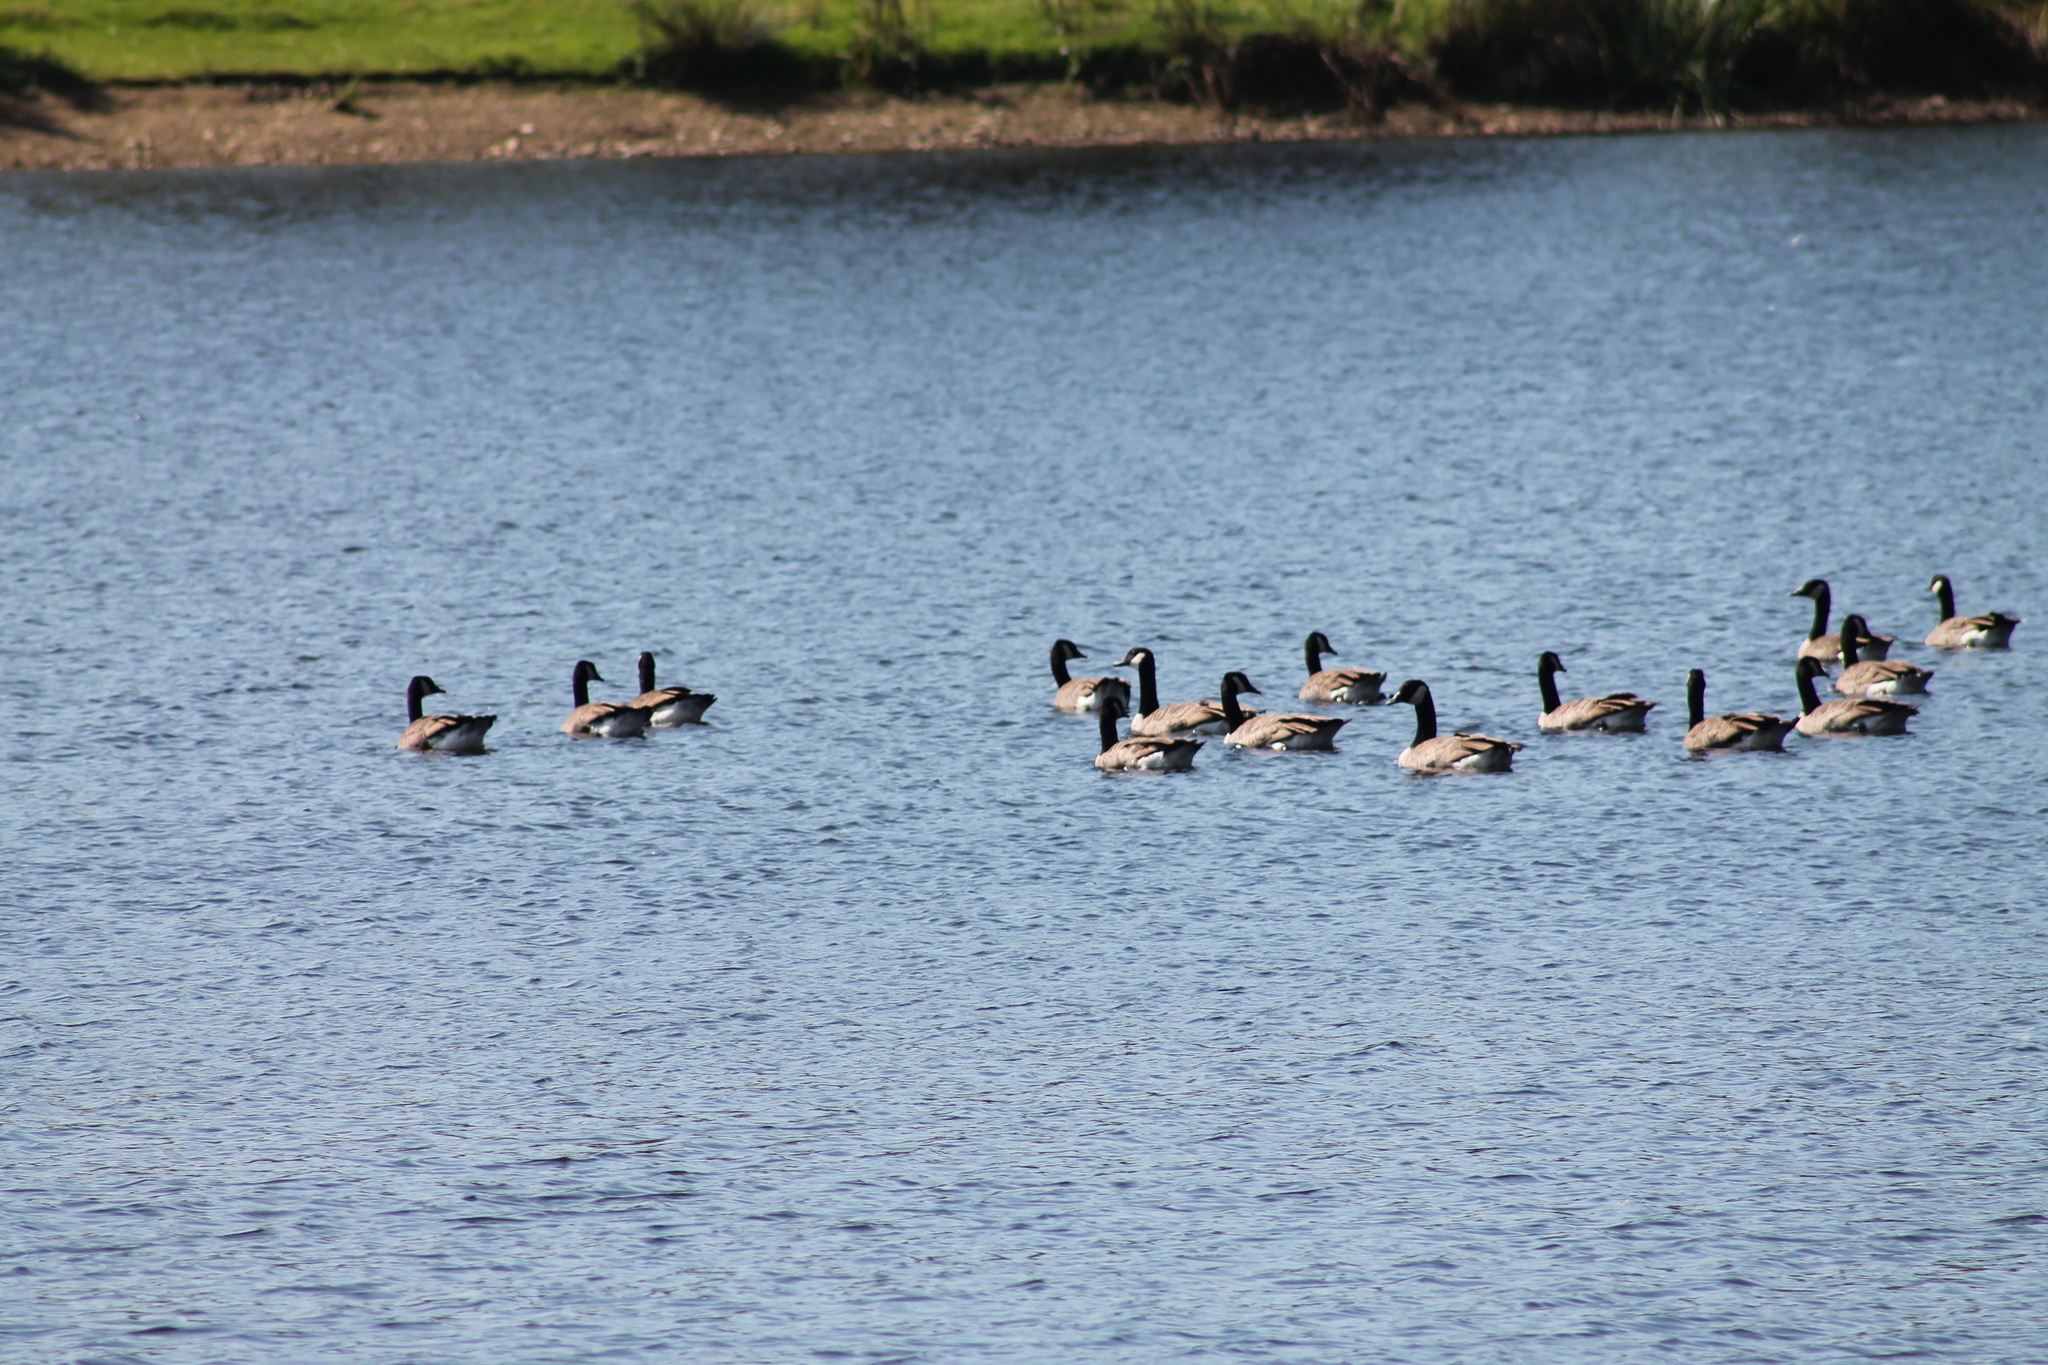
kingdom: Animalia
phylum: Chordata
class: Aves
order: Anseriformes
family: Anatidae
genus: Branta
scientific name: Branta canadensis
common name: Canada goose
